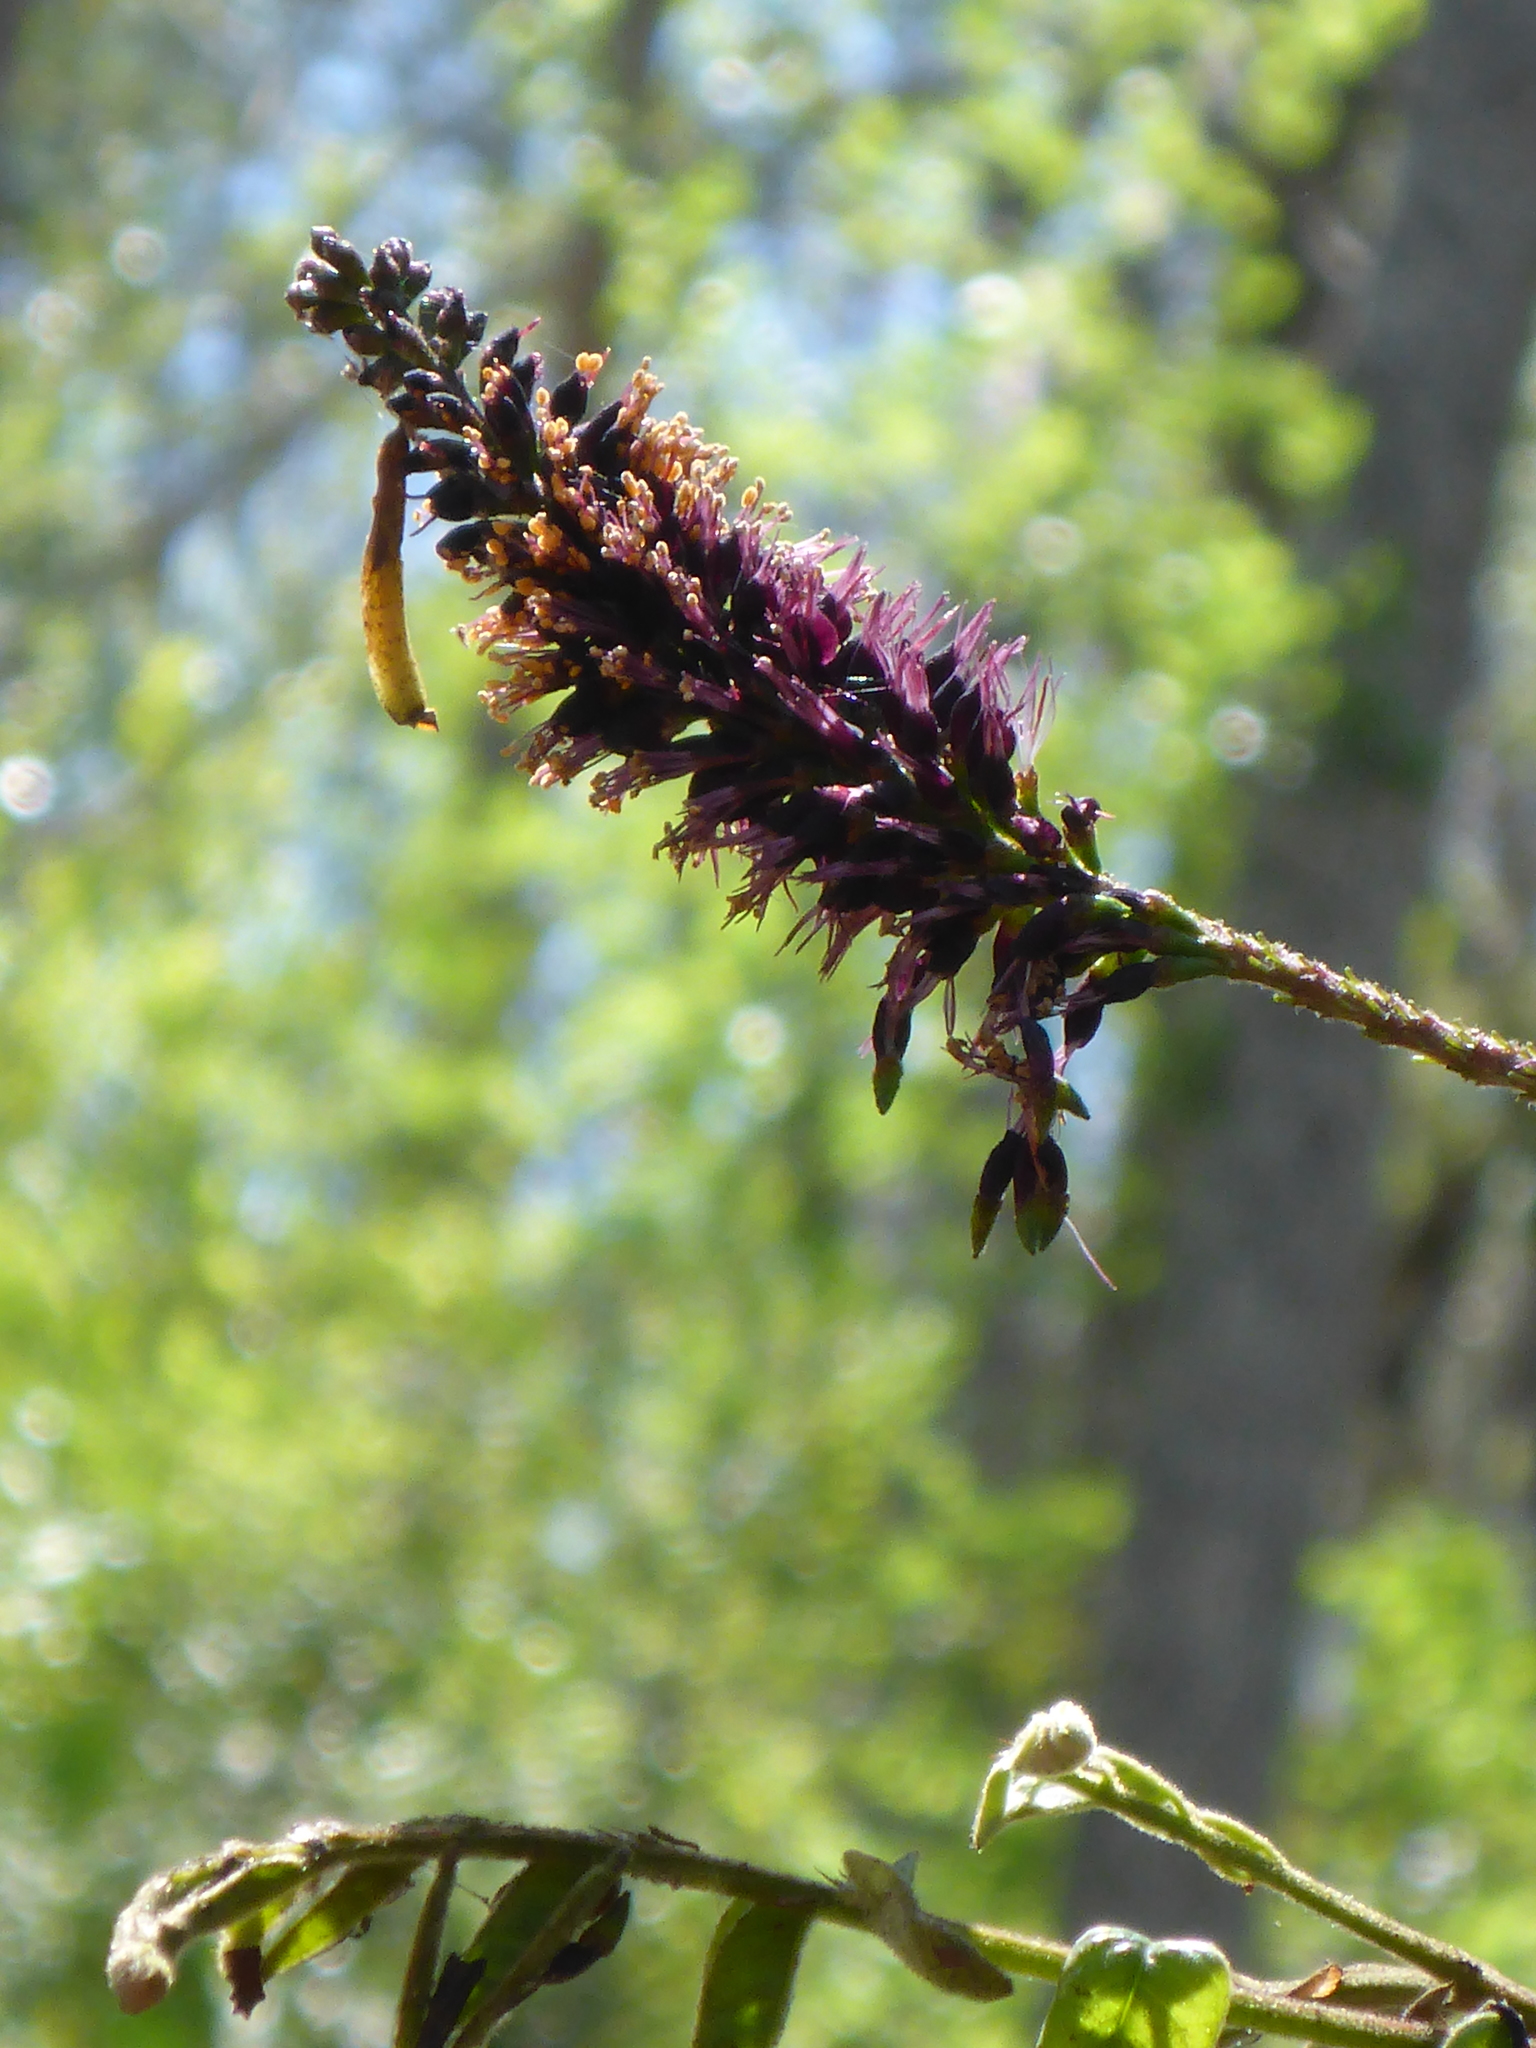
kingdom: Plantae
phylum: Tracheophyta
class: Magnoliopsida
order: Fabales
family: Fabaceae
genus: Amorpha
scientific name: Amorpha fruticosa
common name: False indigo
